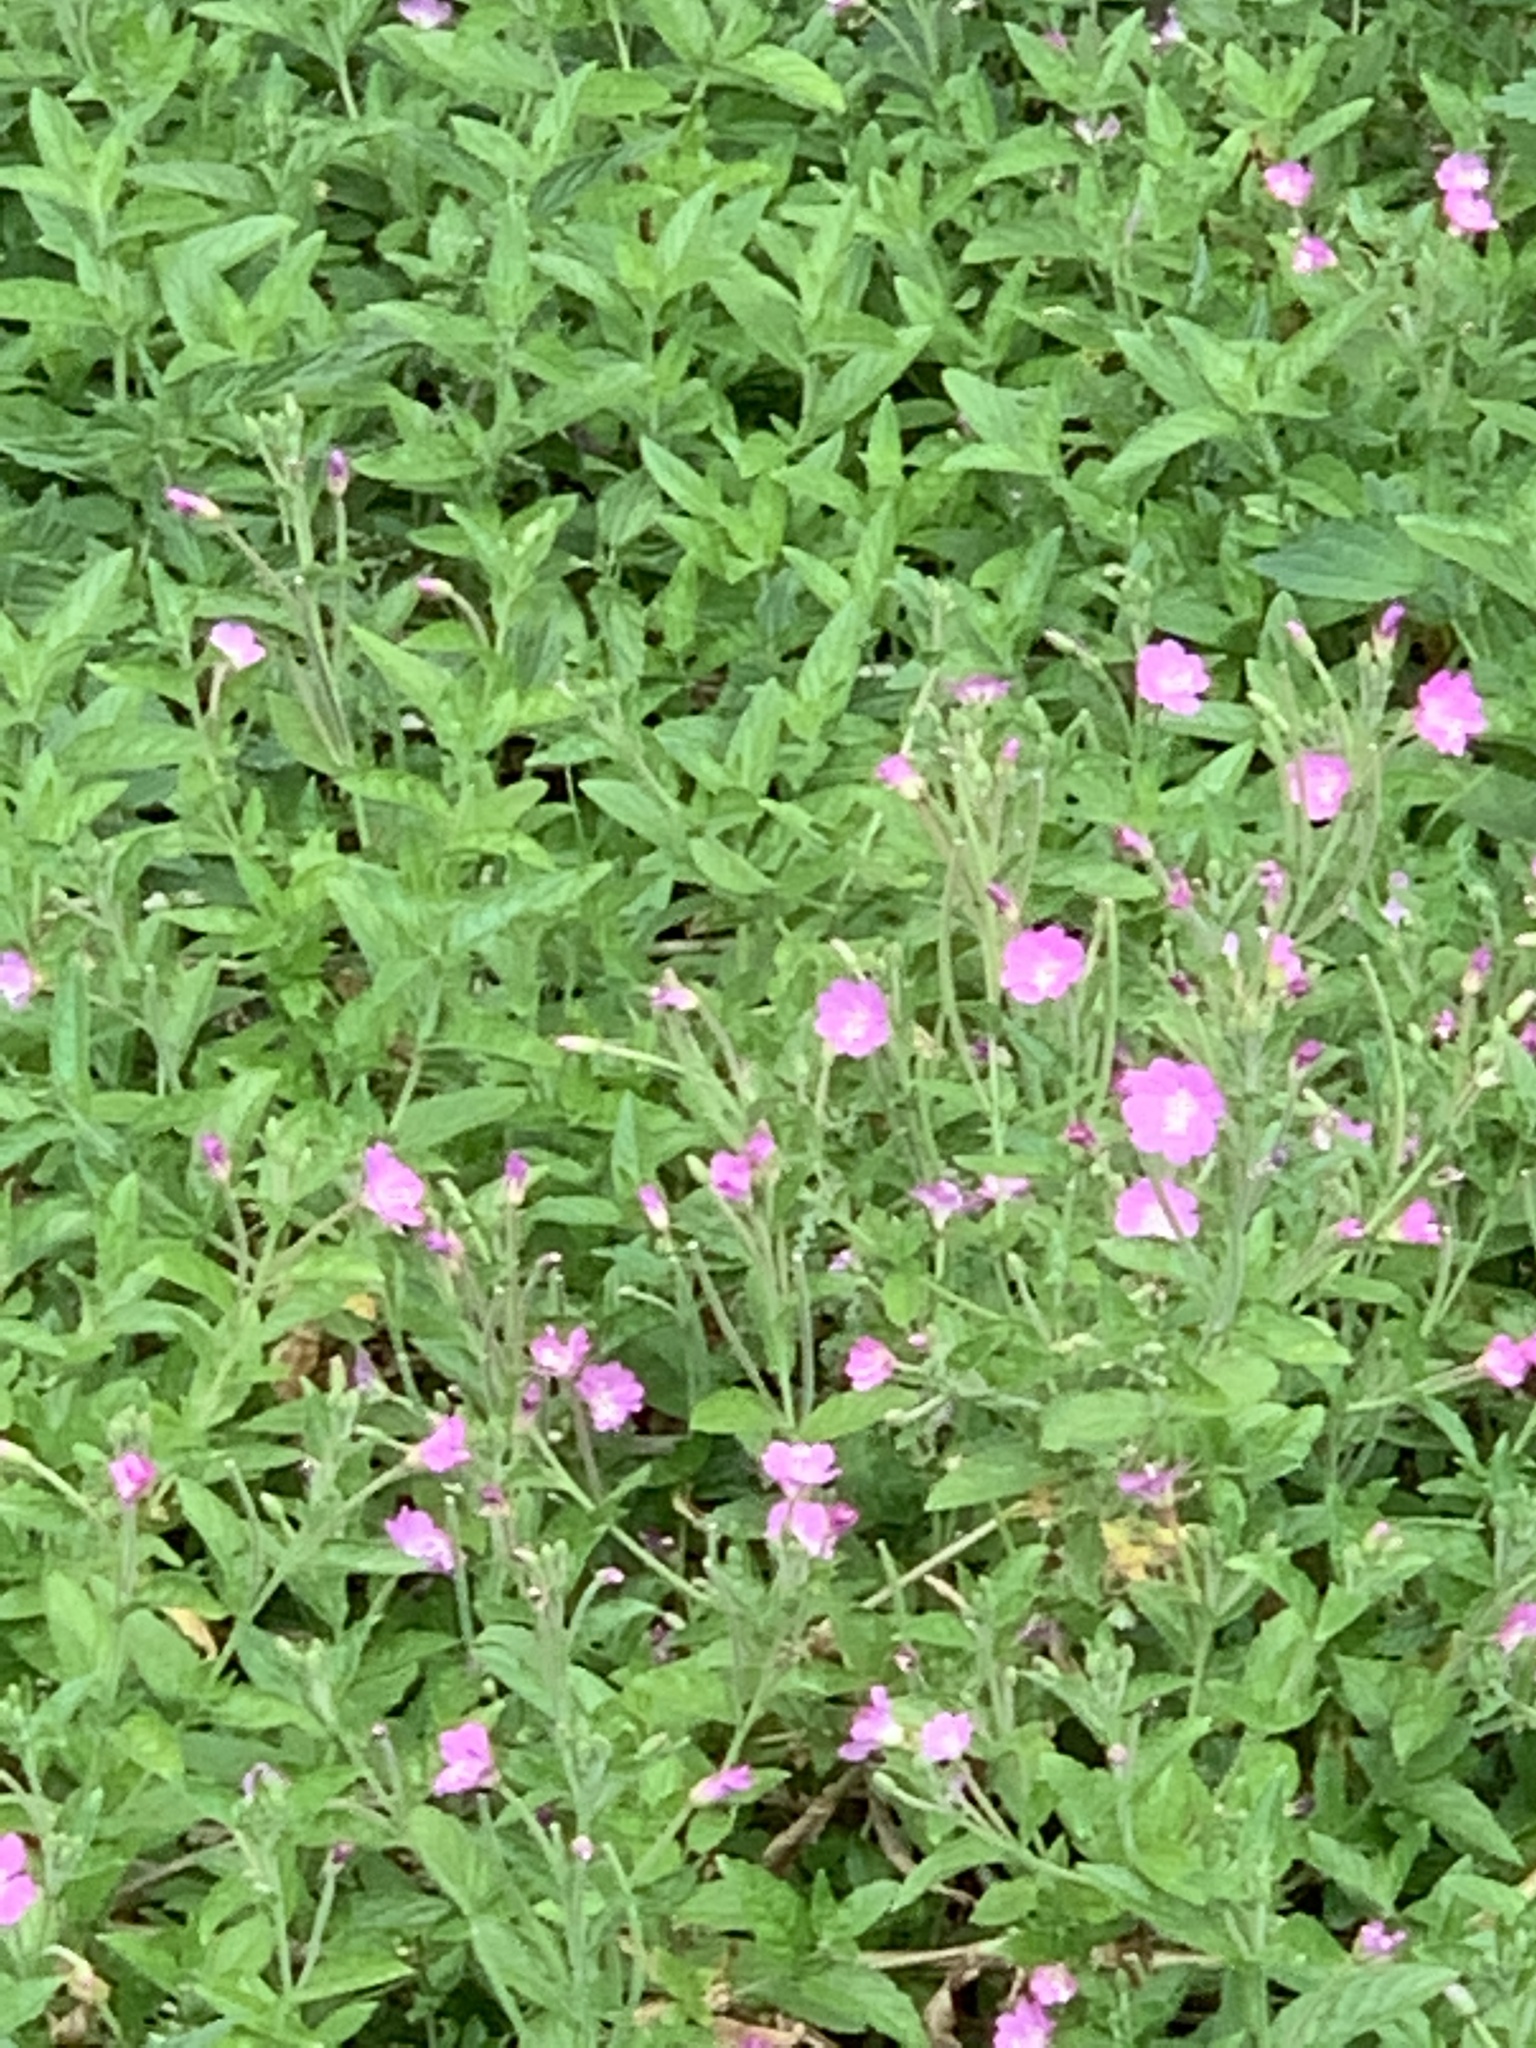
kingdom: Plantae
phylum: Tracheophyta
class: Magnoliopsida
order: Myrtales
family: Onagraceae
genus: Epilobium
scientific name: Epilobium hirsutum
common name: Great willowherb
